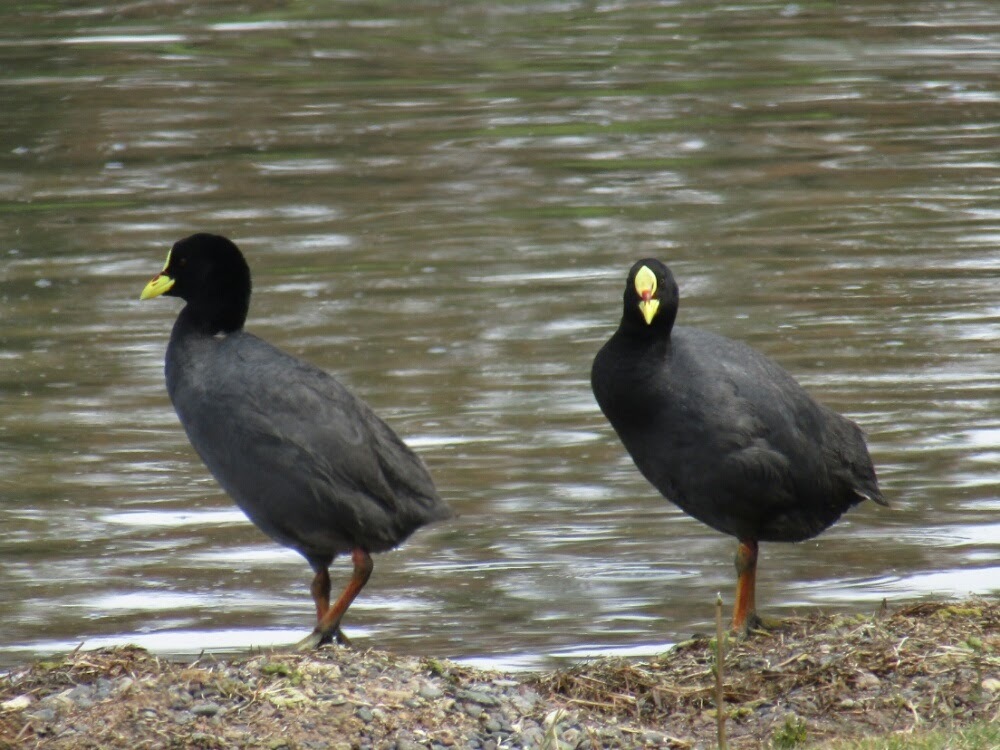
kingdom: Animalia
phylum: Chordata
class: Aves
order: Gruiformes
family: Rallidae
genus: Fulica
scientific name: Fulica armillata
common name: Red-gartered coot
